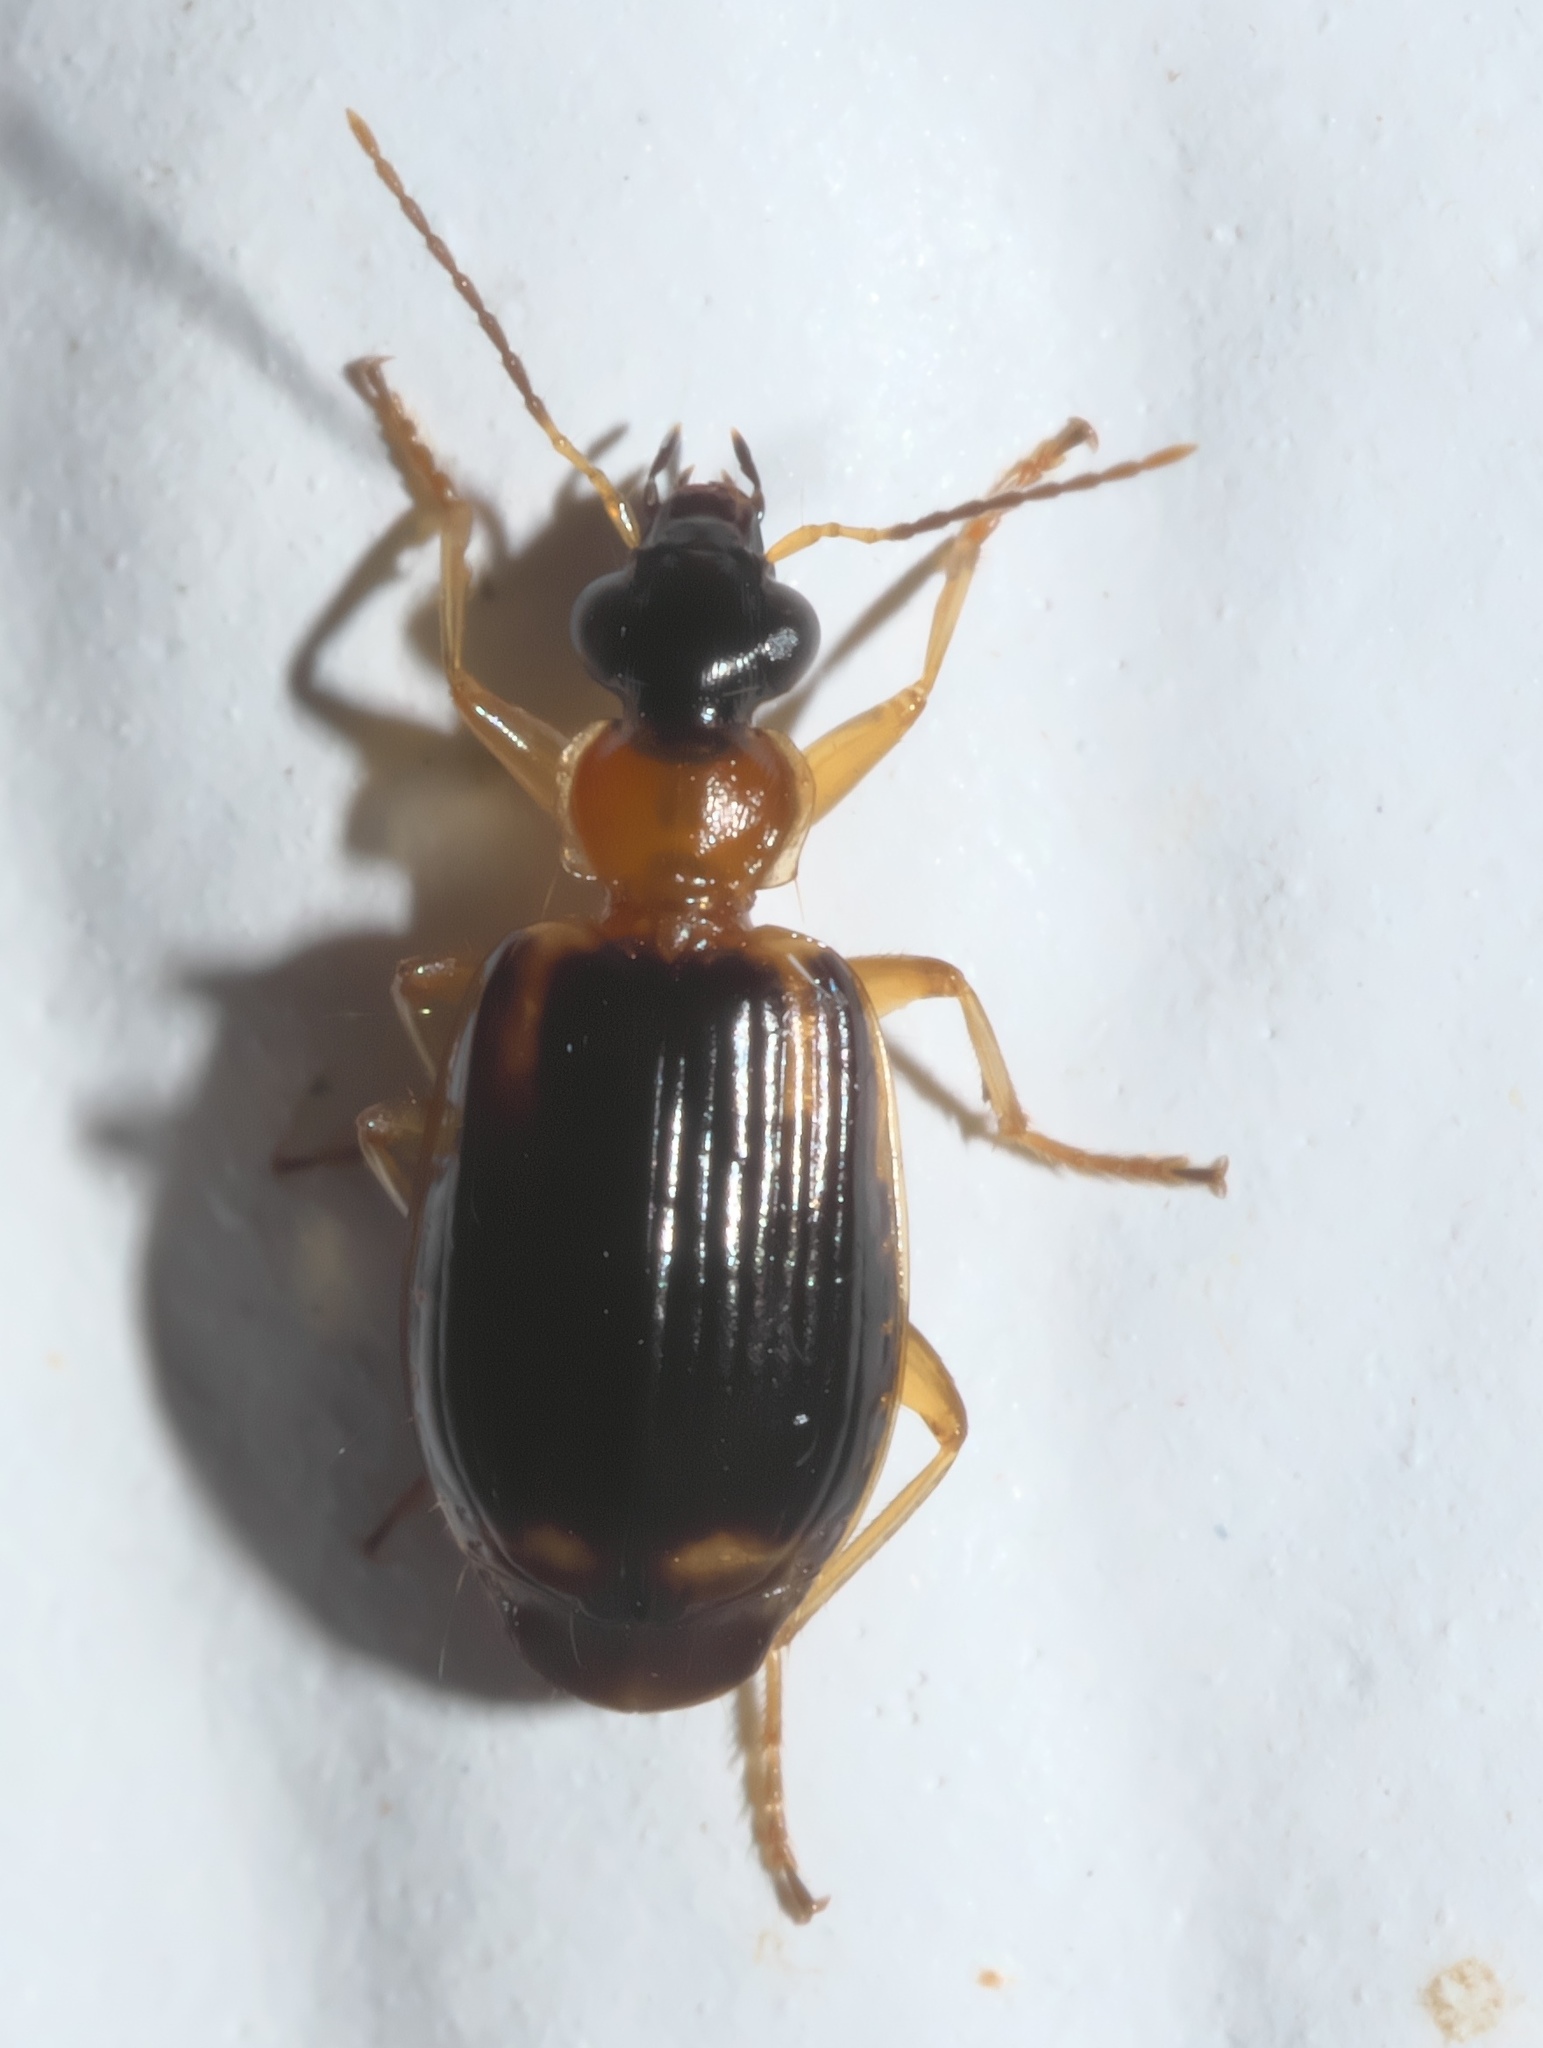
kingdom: Animalia
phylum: Arthropoda
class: Insecta
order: Coleoptera
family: Carabidae
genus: Lebia
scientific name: Lebia analis
